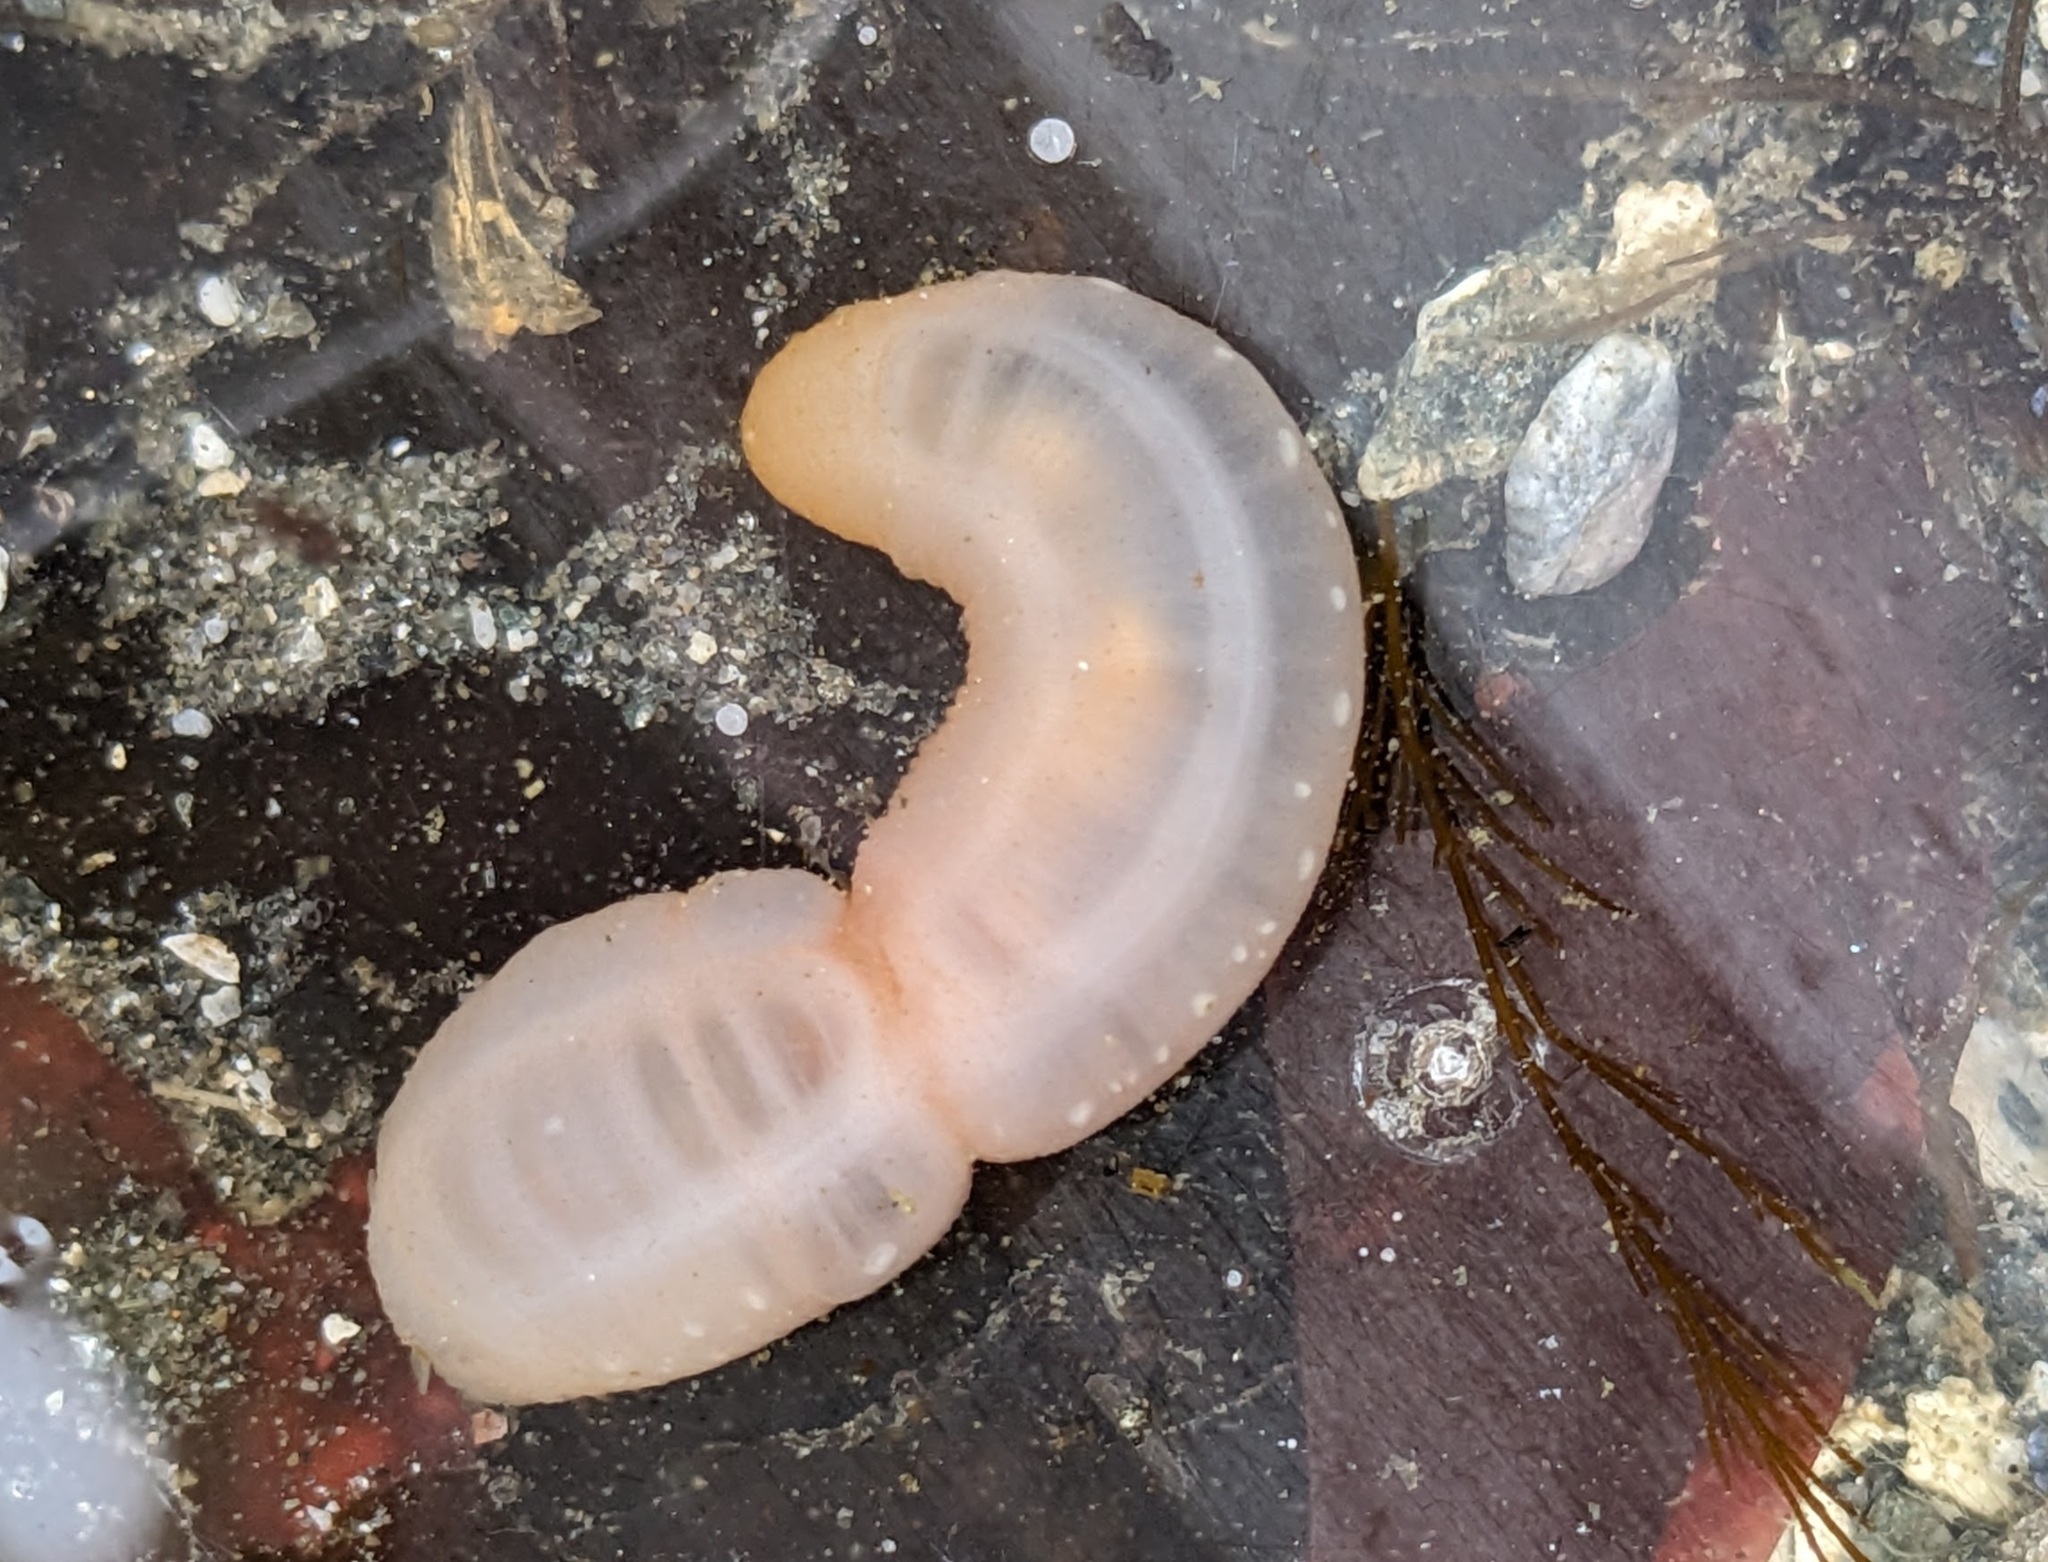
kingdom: Animalia
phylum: Echinodermata
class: Holothuroidea
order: Apodida
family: Chiridotidae
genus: Chiridota
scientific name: Chiridota discolor
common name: Jellybean footless sea cucumber
